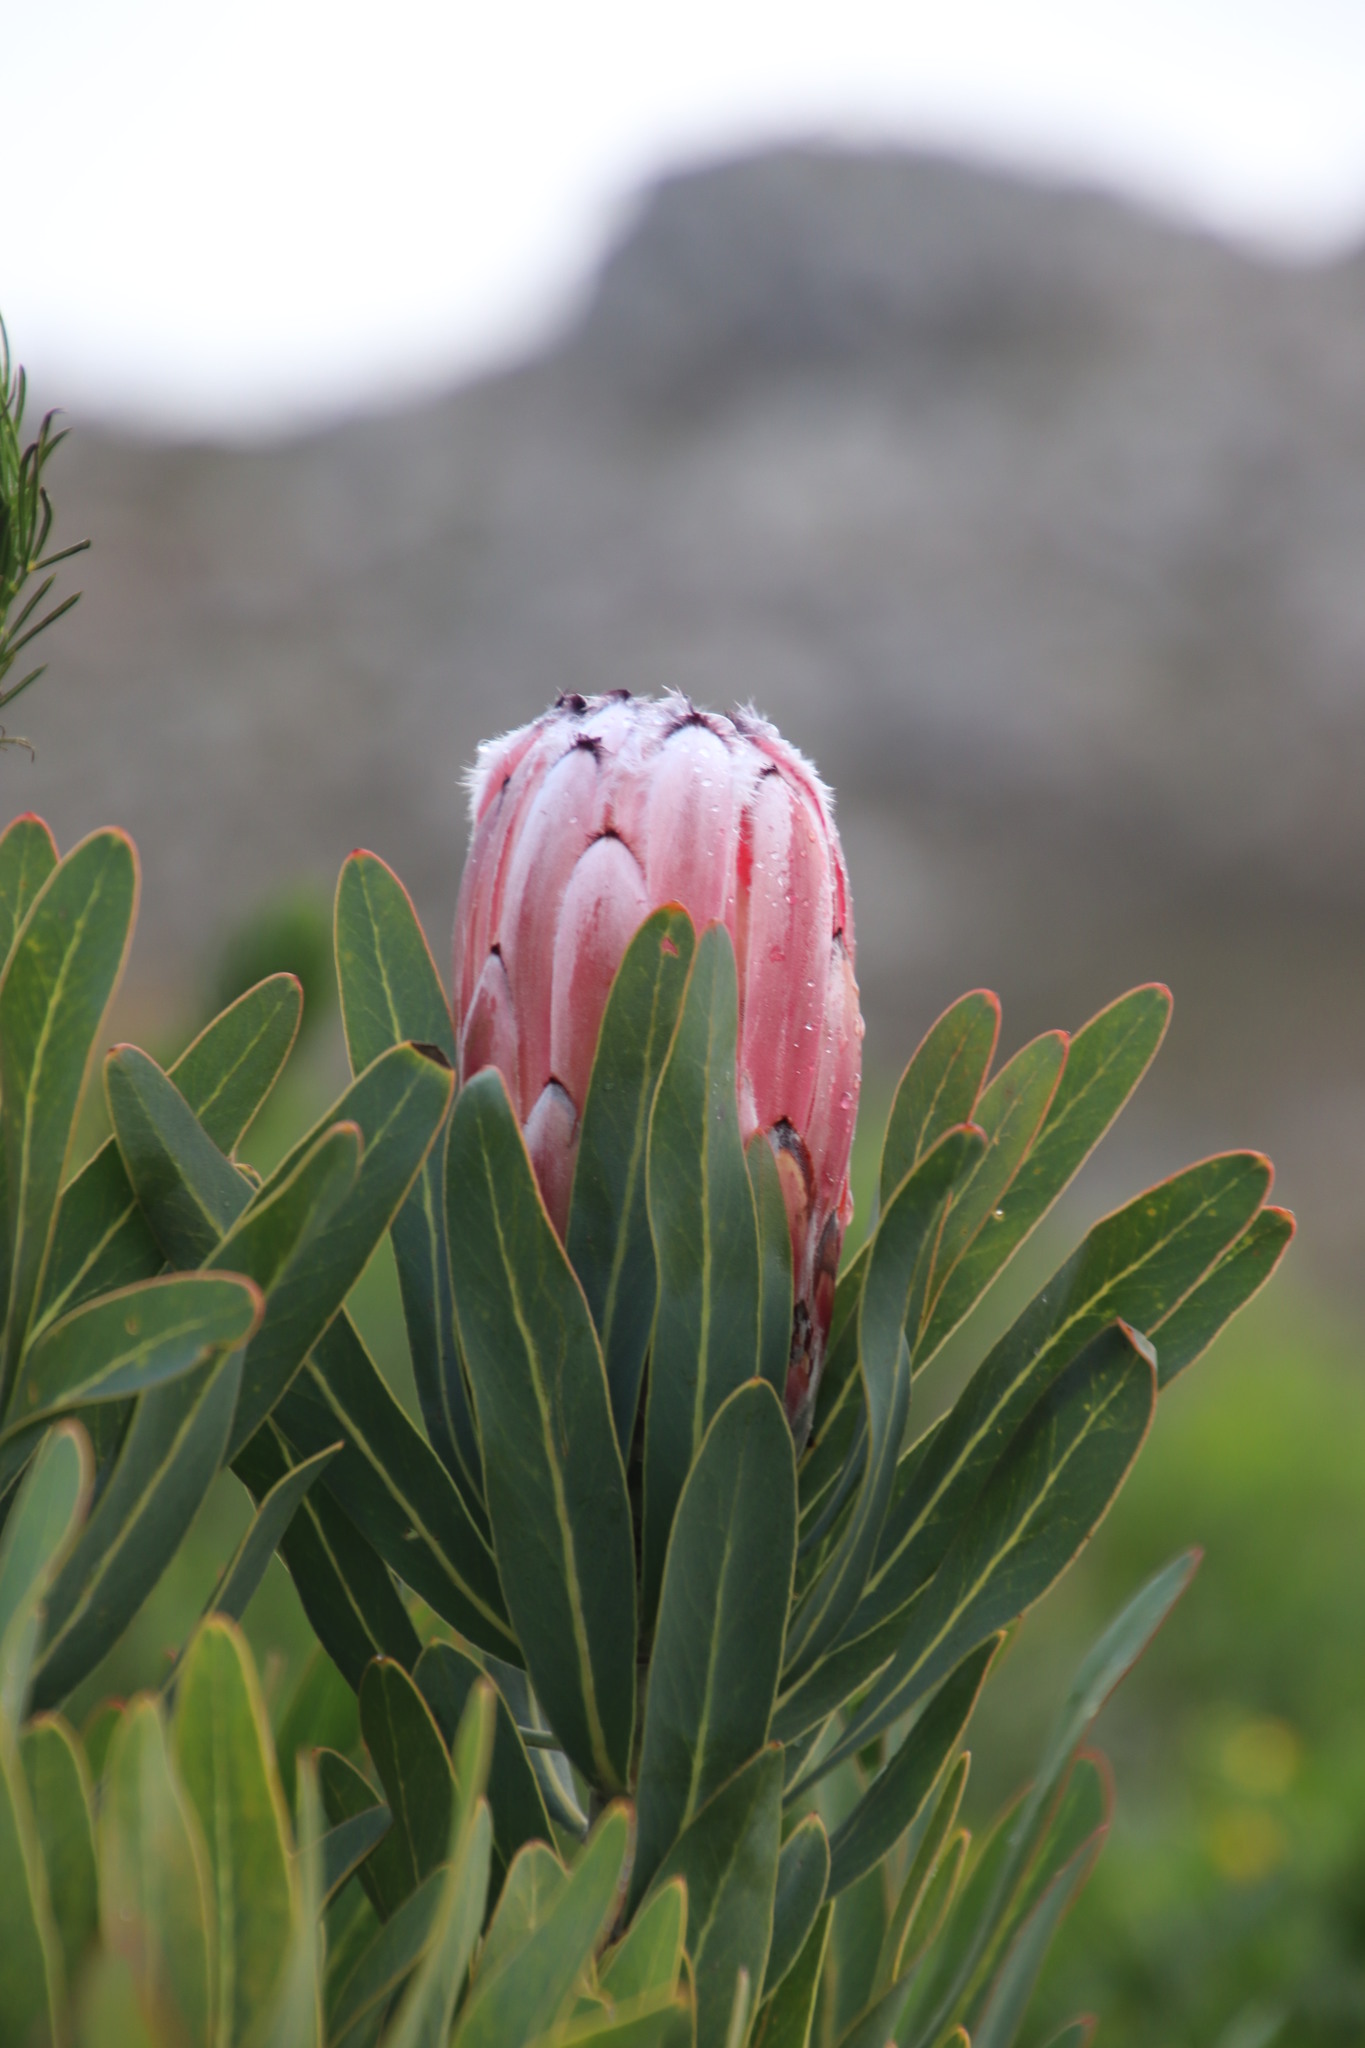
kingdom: Plantae
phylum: Tracheophyta
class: Magnoliopsida
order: Proteales
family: Proteaceae
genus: Protea
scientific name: Protea
